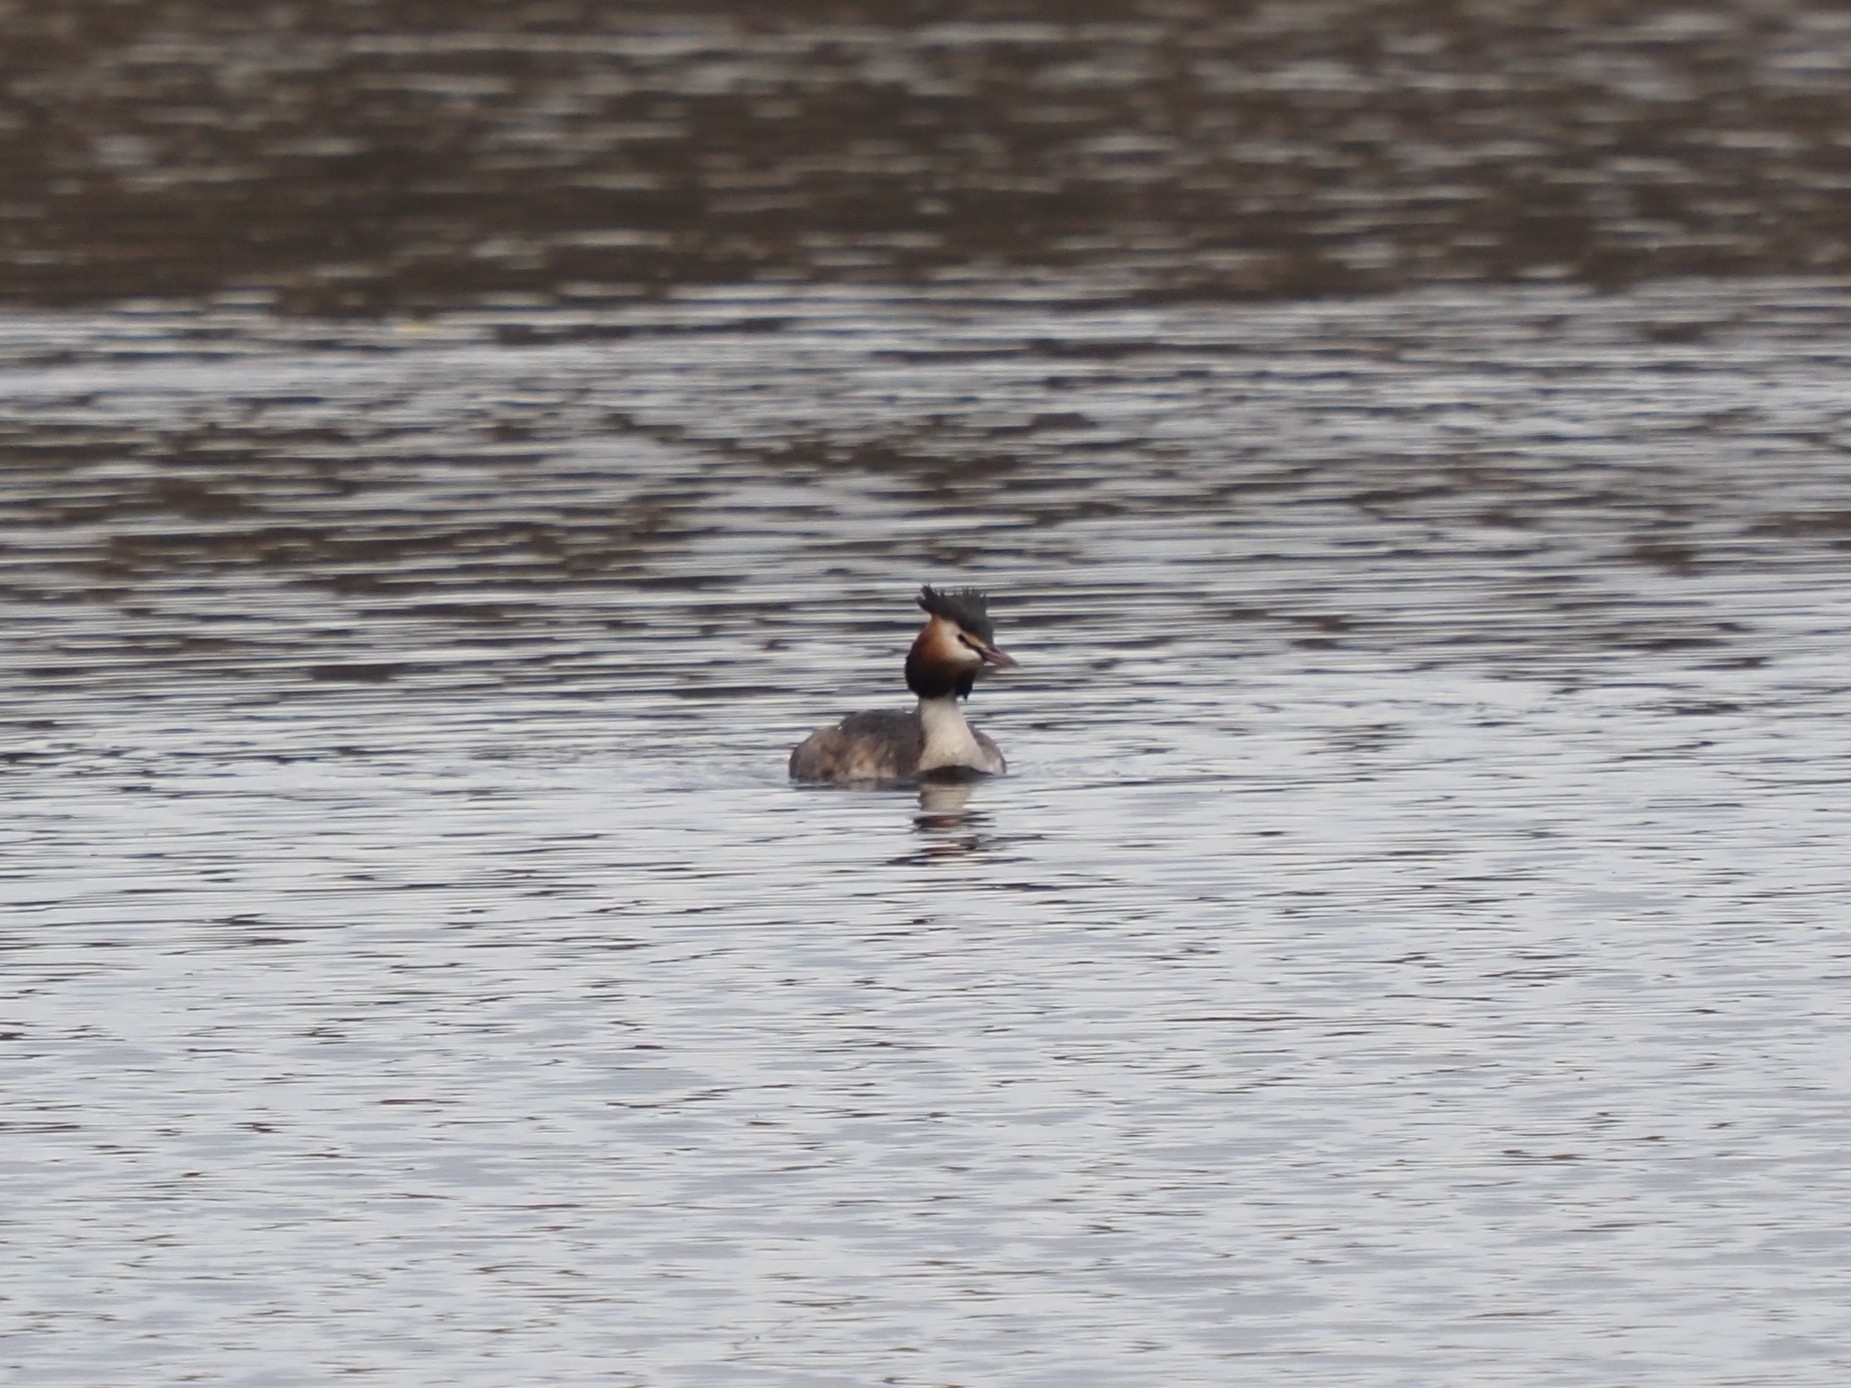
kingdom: Animalia
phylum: Chordata
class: Aves
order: Podicipediformes
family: Podicipedidae
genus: Podiceps
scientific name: Podiceps cristatus
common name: Great crested grebe
